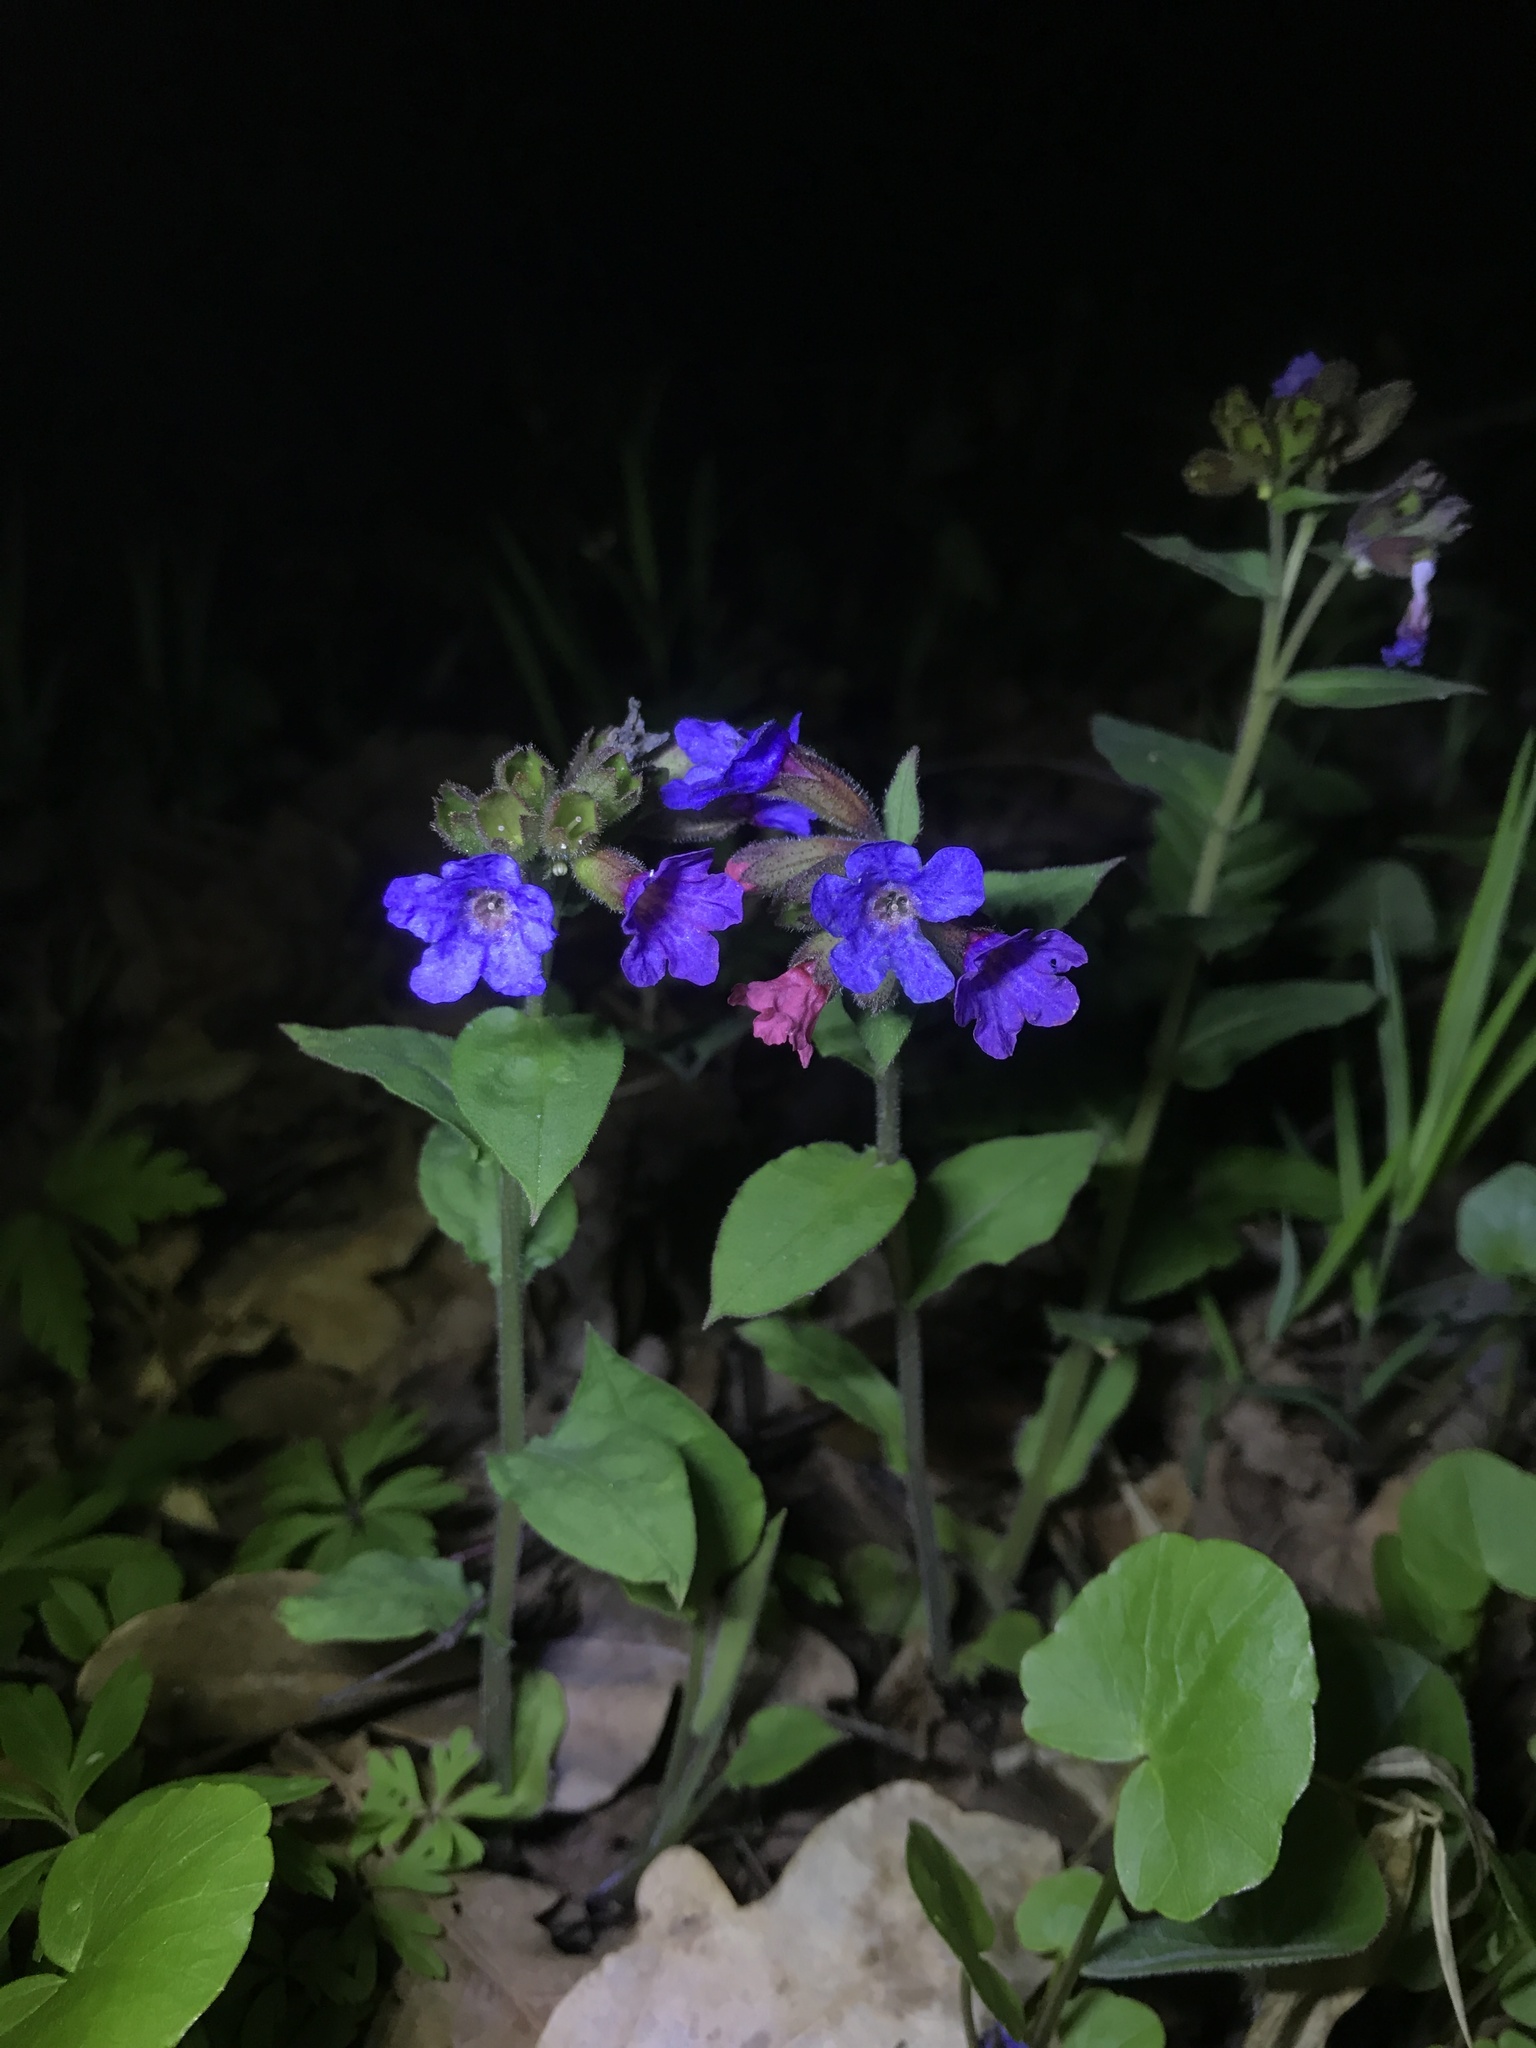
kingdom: Plantae
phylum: Tracheophyta
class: Magnoliopsida
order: Boraginales
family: Boraginaceae
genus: Pulmonaria
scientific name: Pulmonaria obscura
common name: Suffolk lungwort
